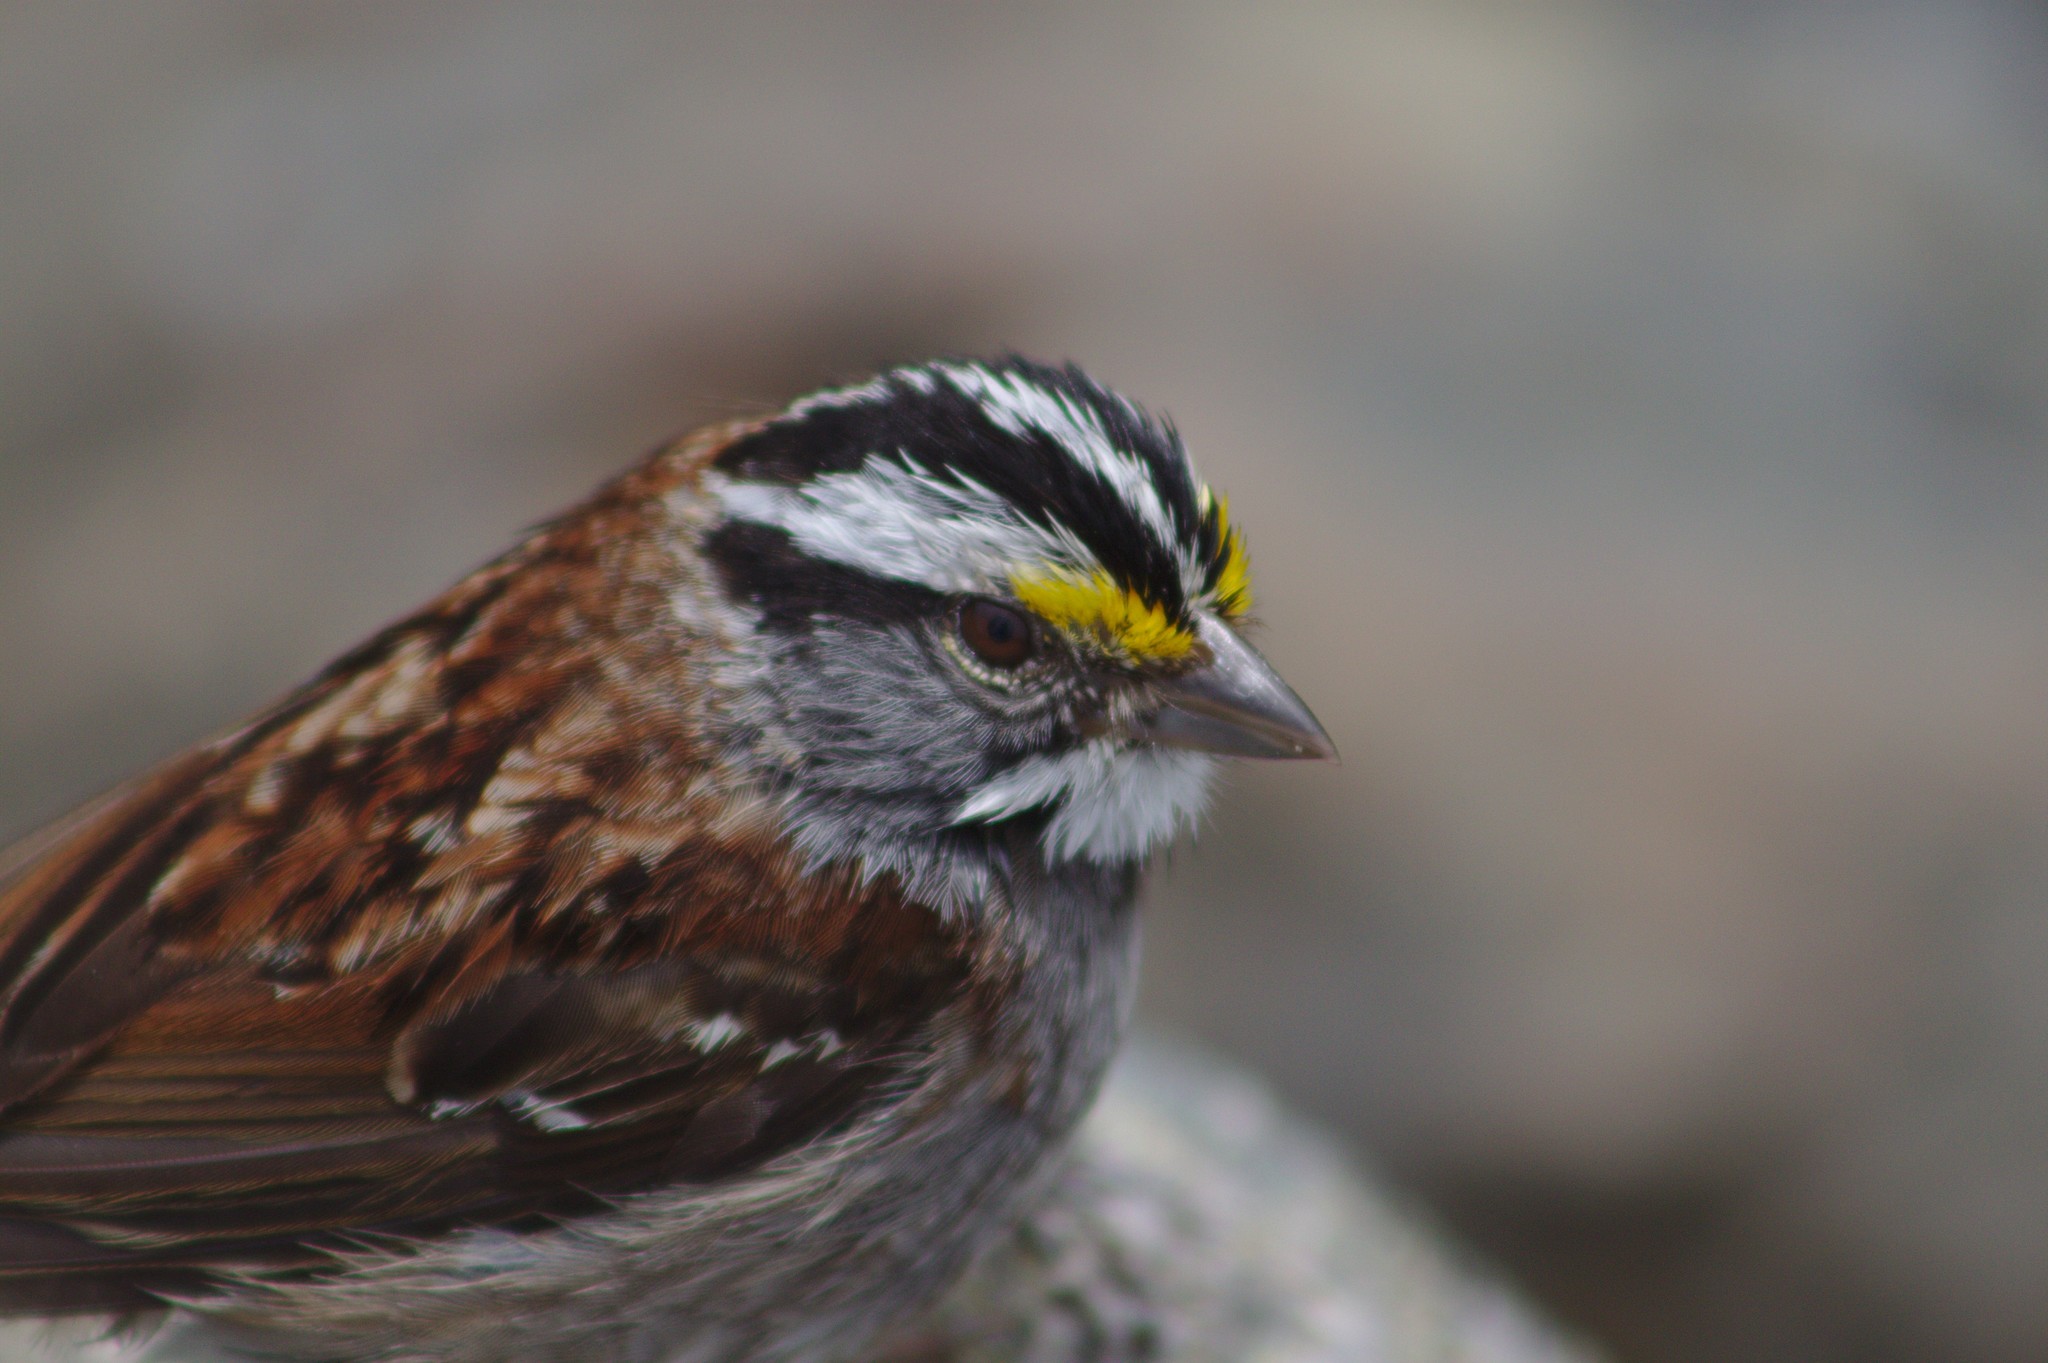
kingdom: Animalia
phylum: Chordata
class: Aves
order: Passeriformes
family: Passerellidae
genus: Zonotrichia
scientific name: Zonotrichia albicollis
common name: White-throated sparrow
